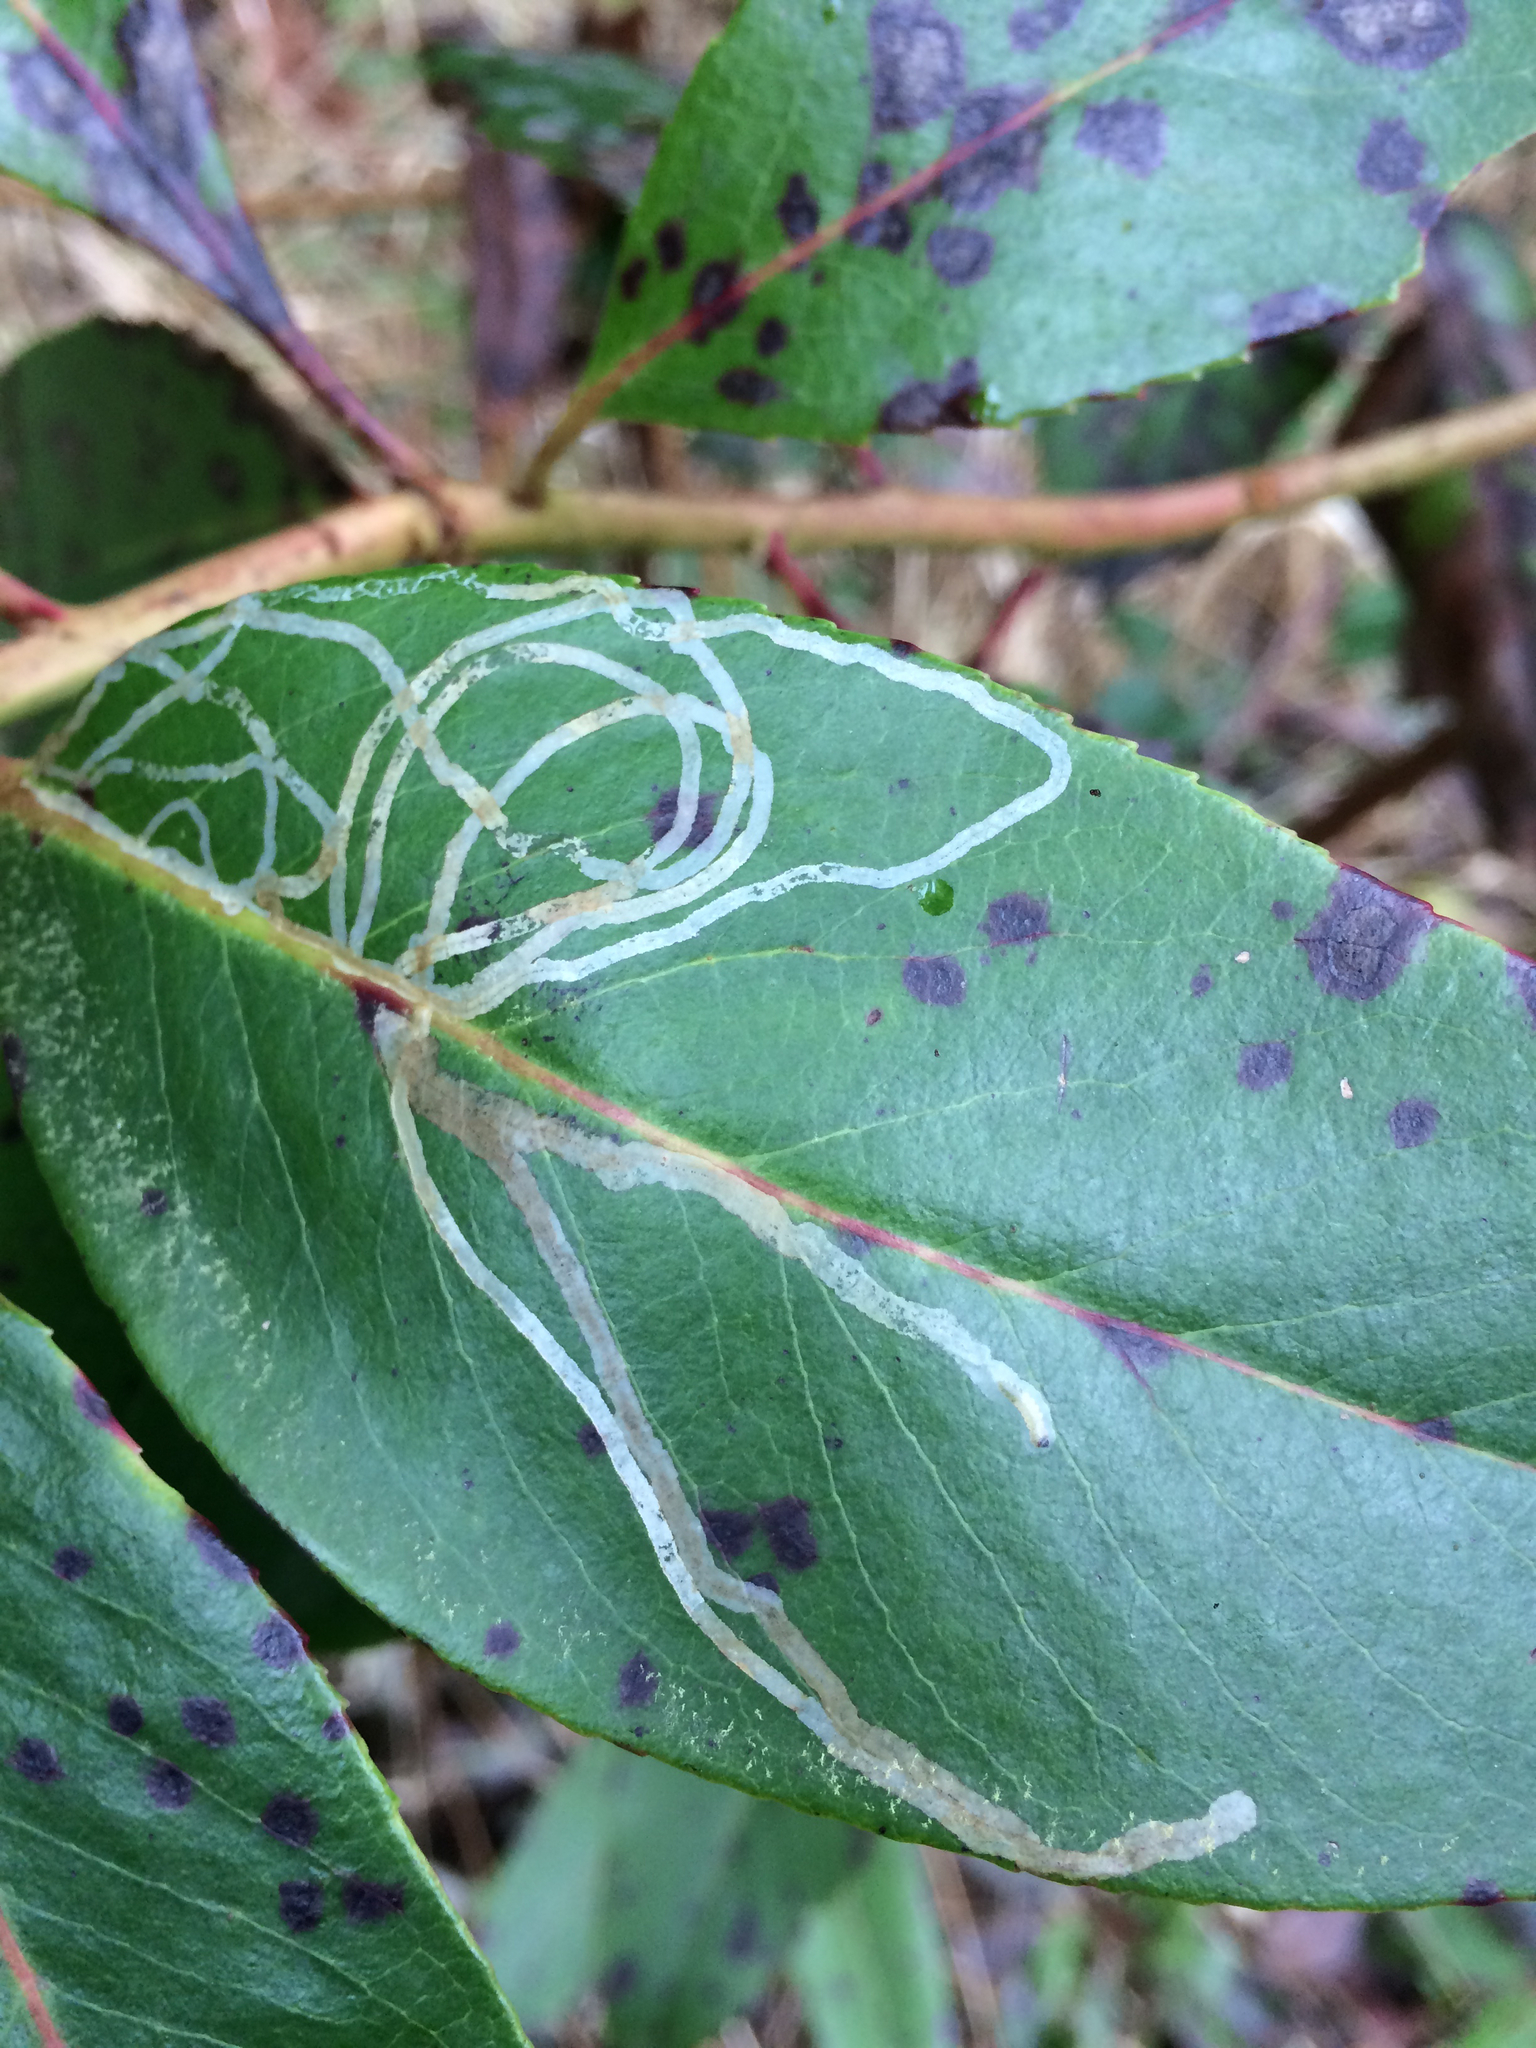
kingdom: Animalia
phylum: Arthropoda
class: Insecta
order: Lepidoptera
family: Gracillariidae
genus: Marmara
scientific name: Marmara arbutiella
